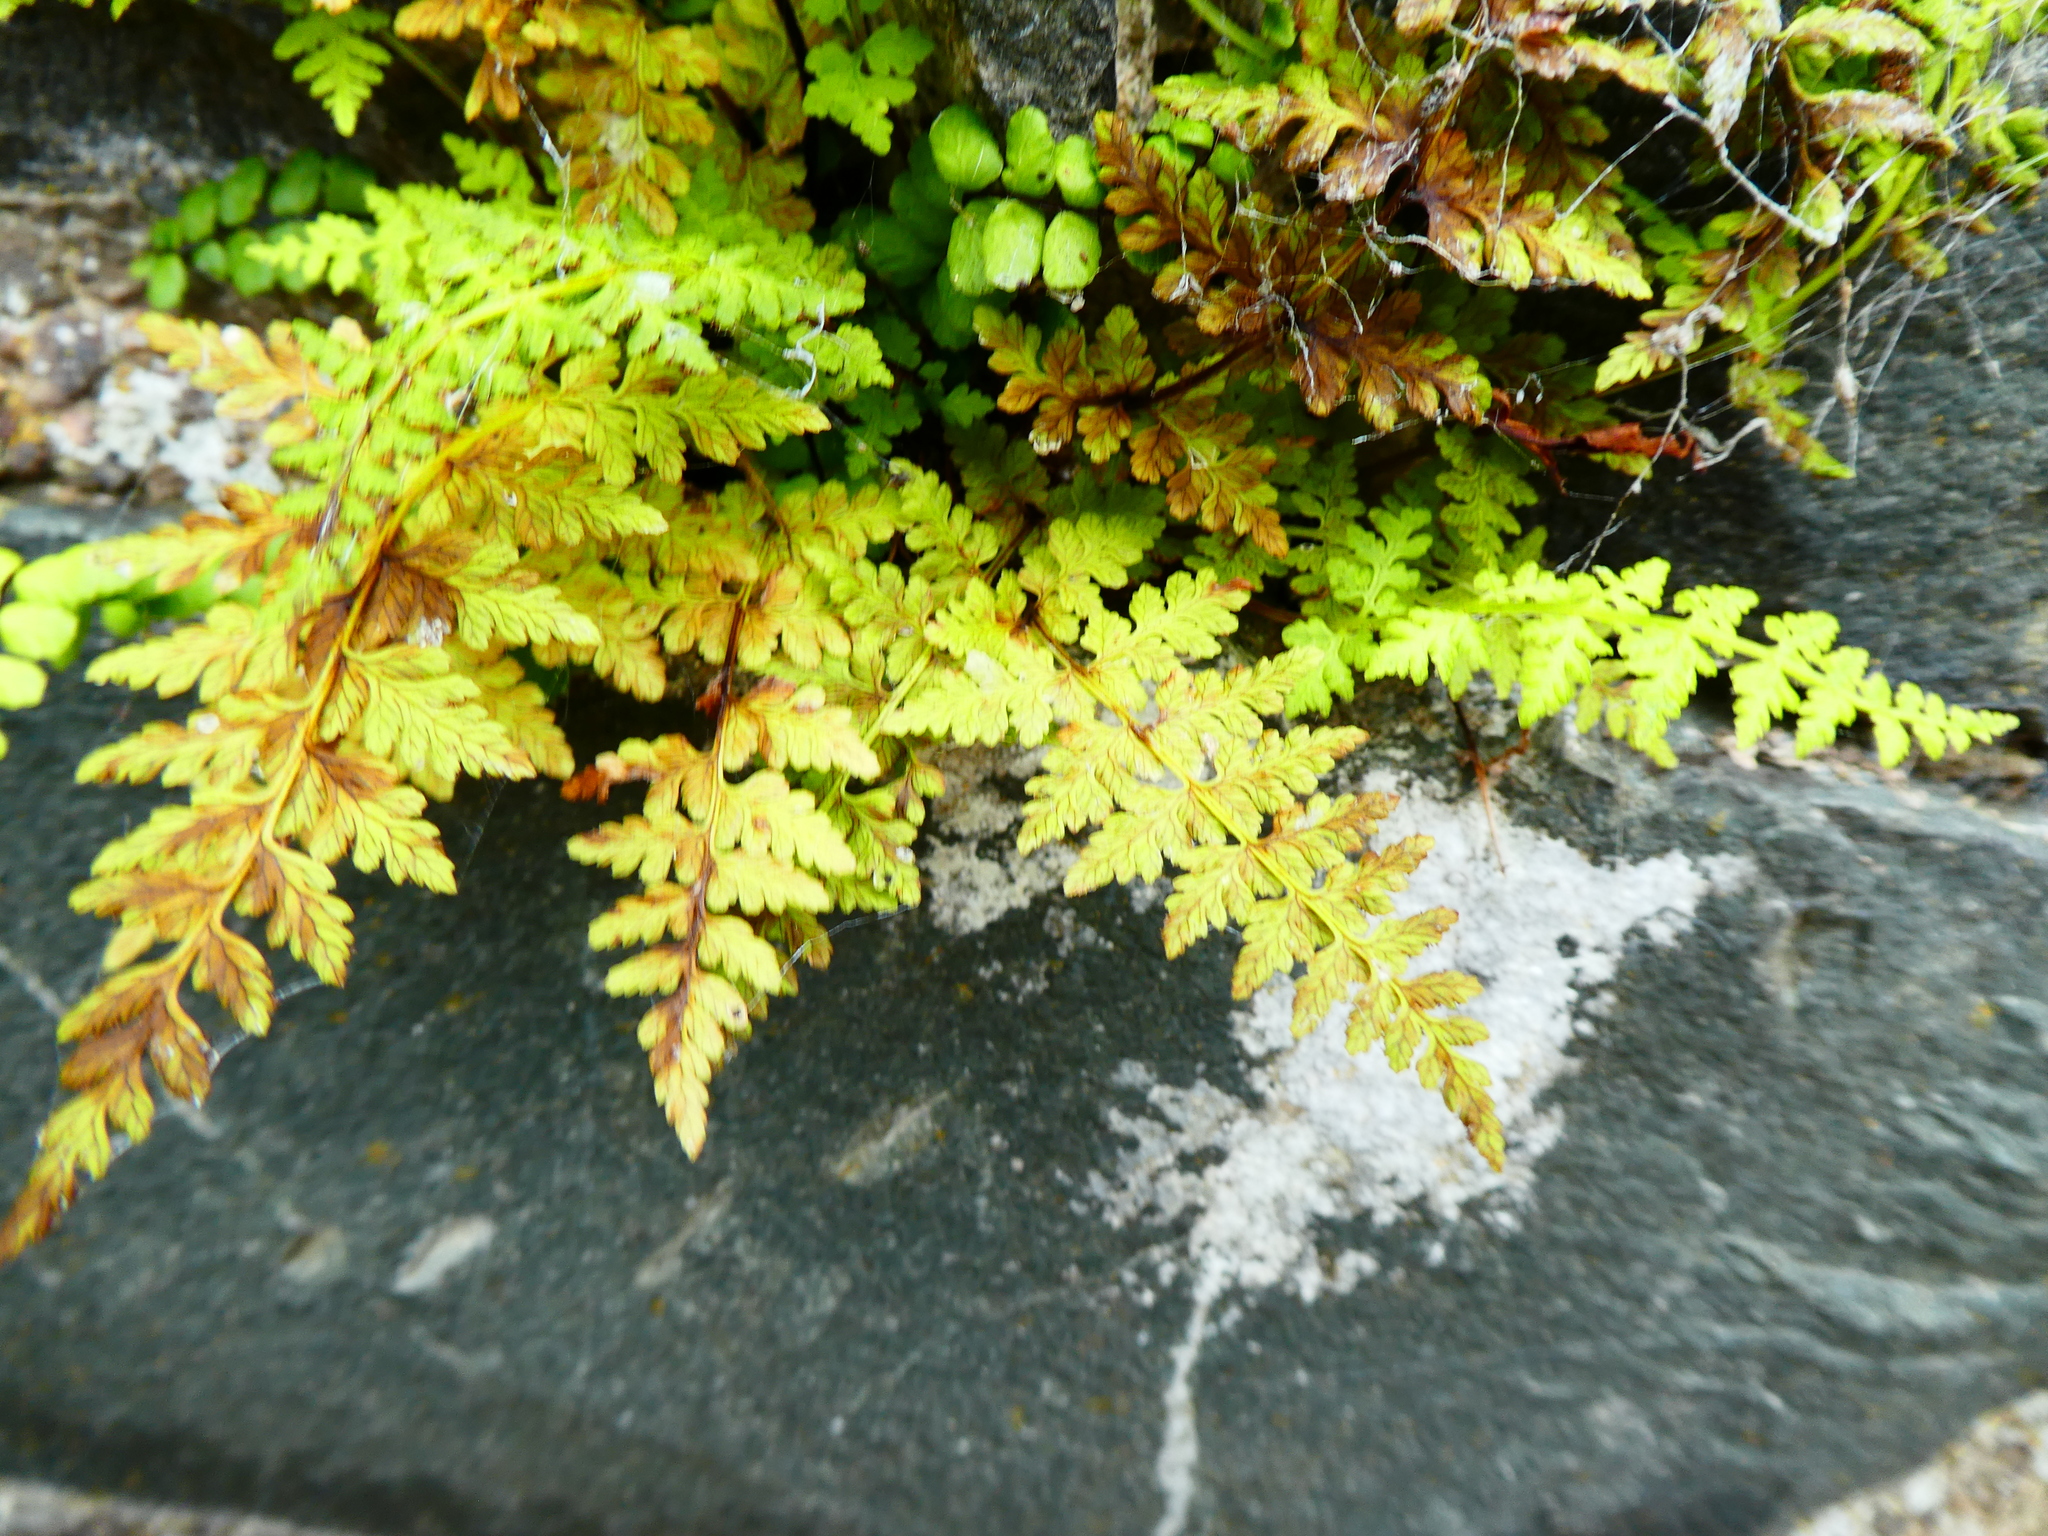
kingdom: Plantae
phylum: Tracheophyta
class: Polypodiopsida
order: Polypodiales
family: Aspleniaceae
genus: Asplenium
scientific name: Asplenium adiantum-nigrum
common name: Black spleenwort
